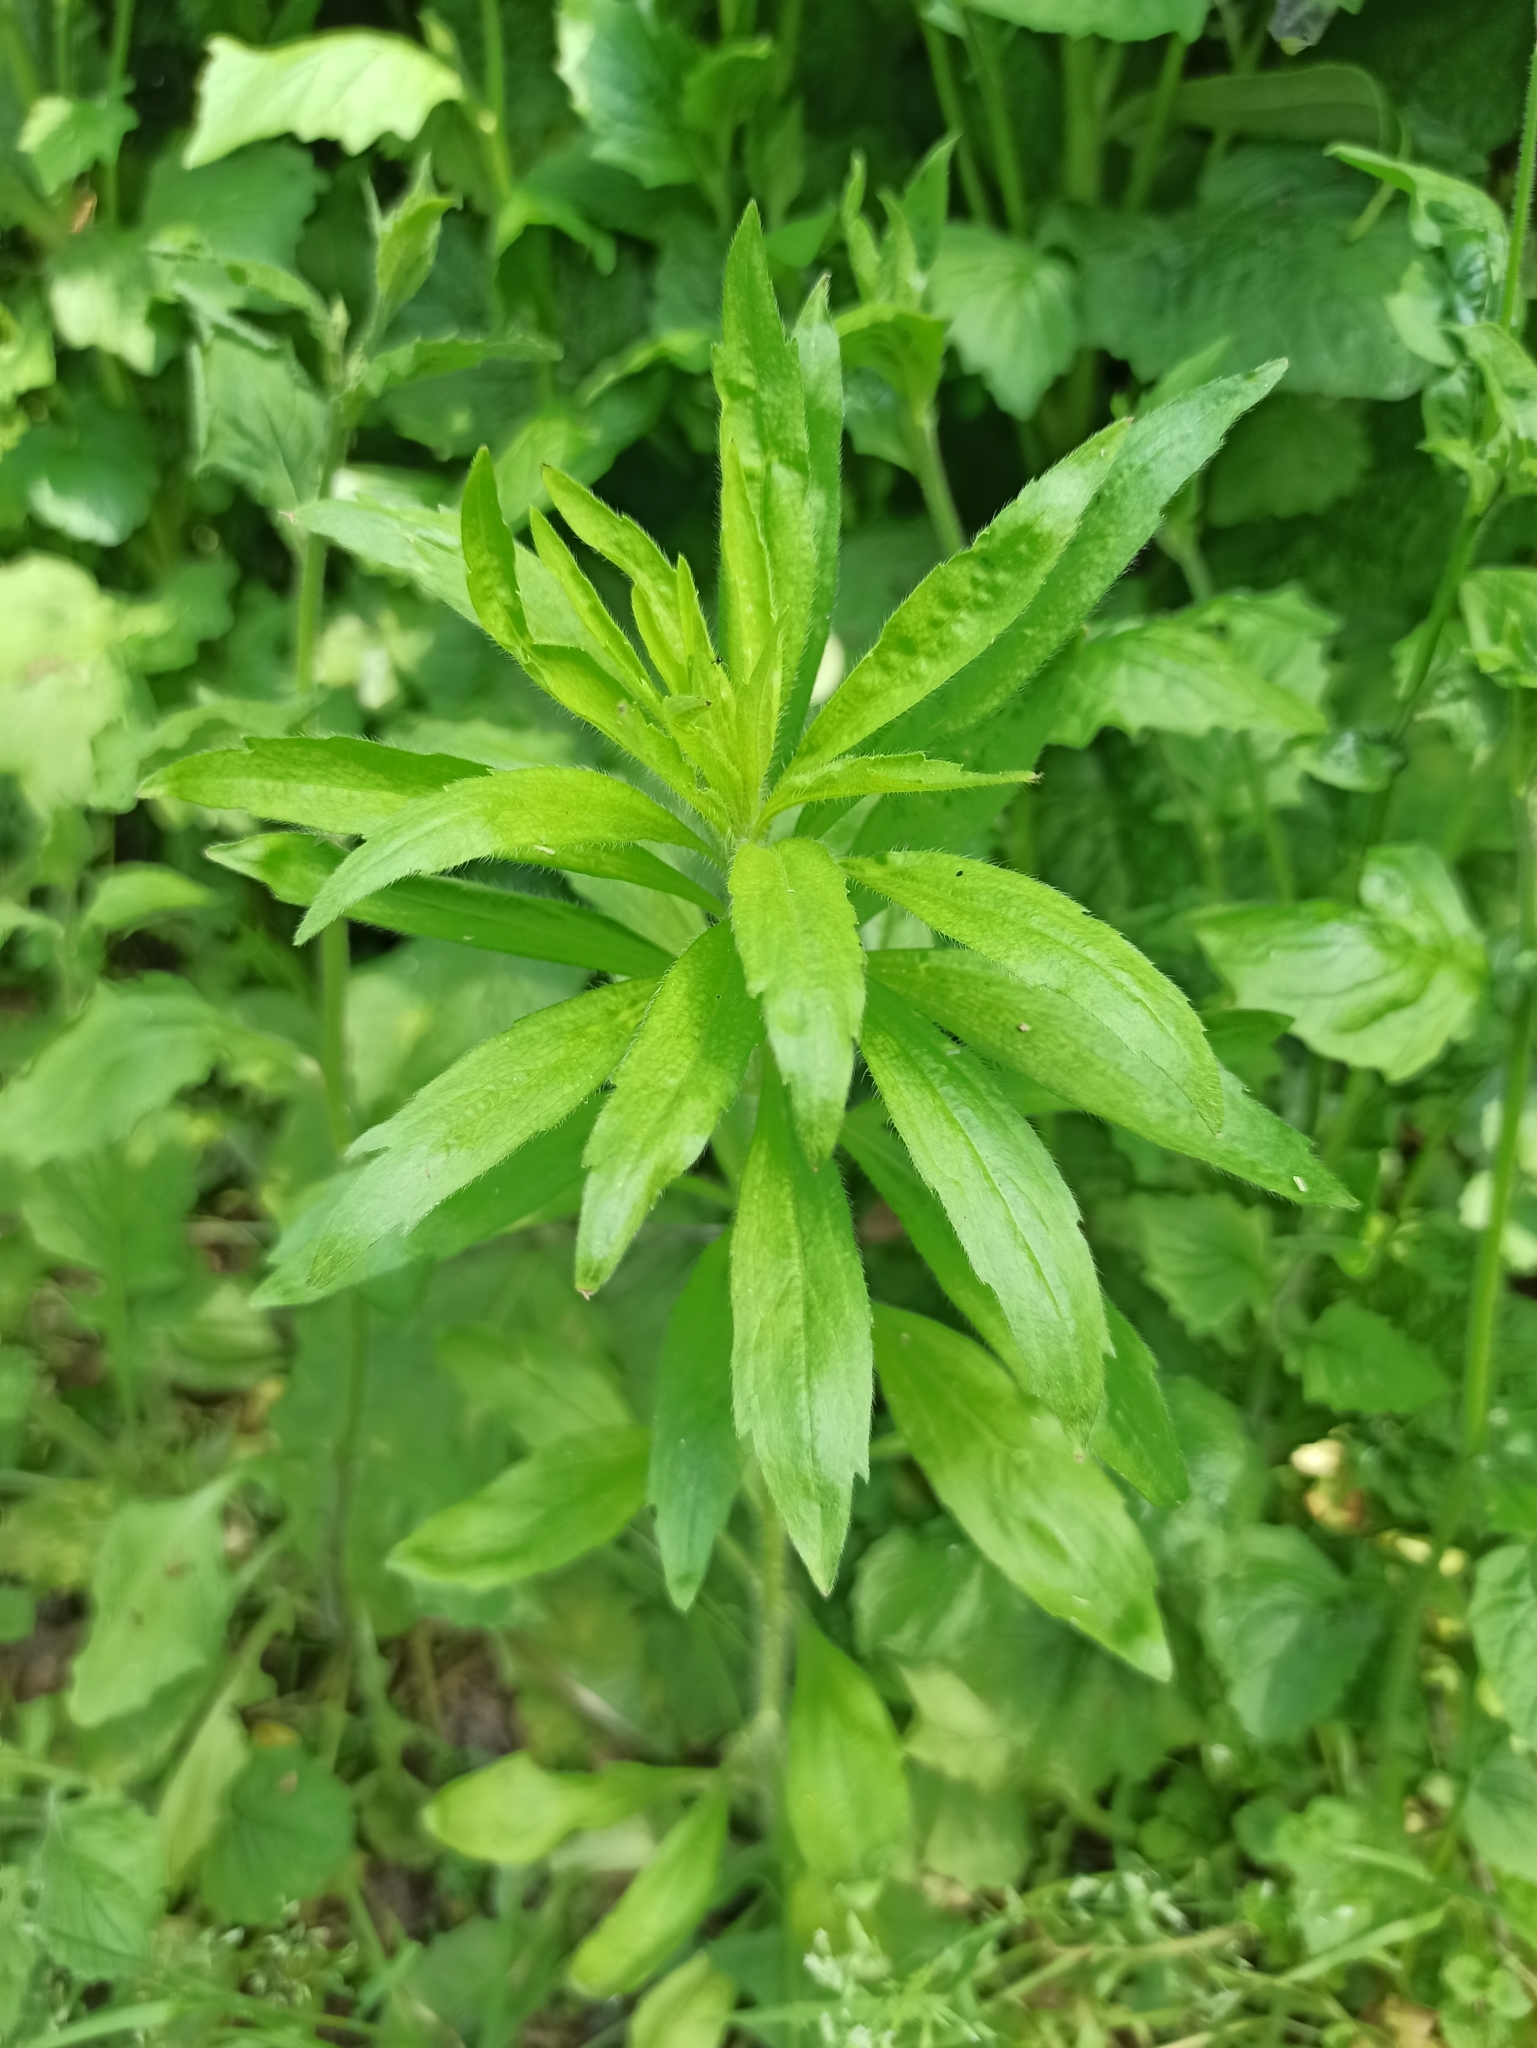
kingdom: Plantae
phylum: Tracheophyta
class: Magnoliopsida
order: Asterales
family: Asteraceae
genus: Erigeron
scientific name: Erigeron canadensis
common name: Canadian fleabane
